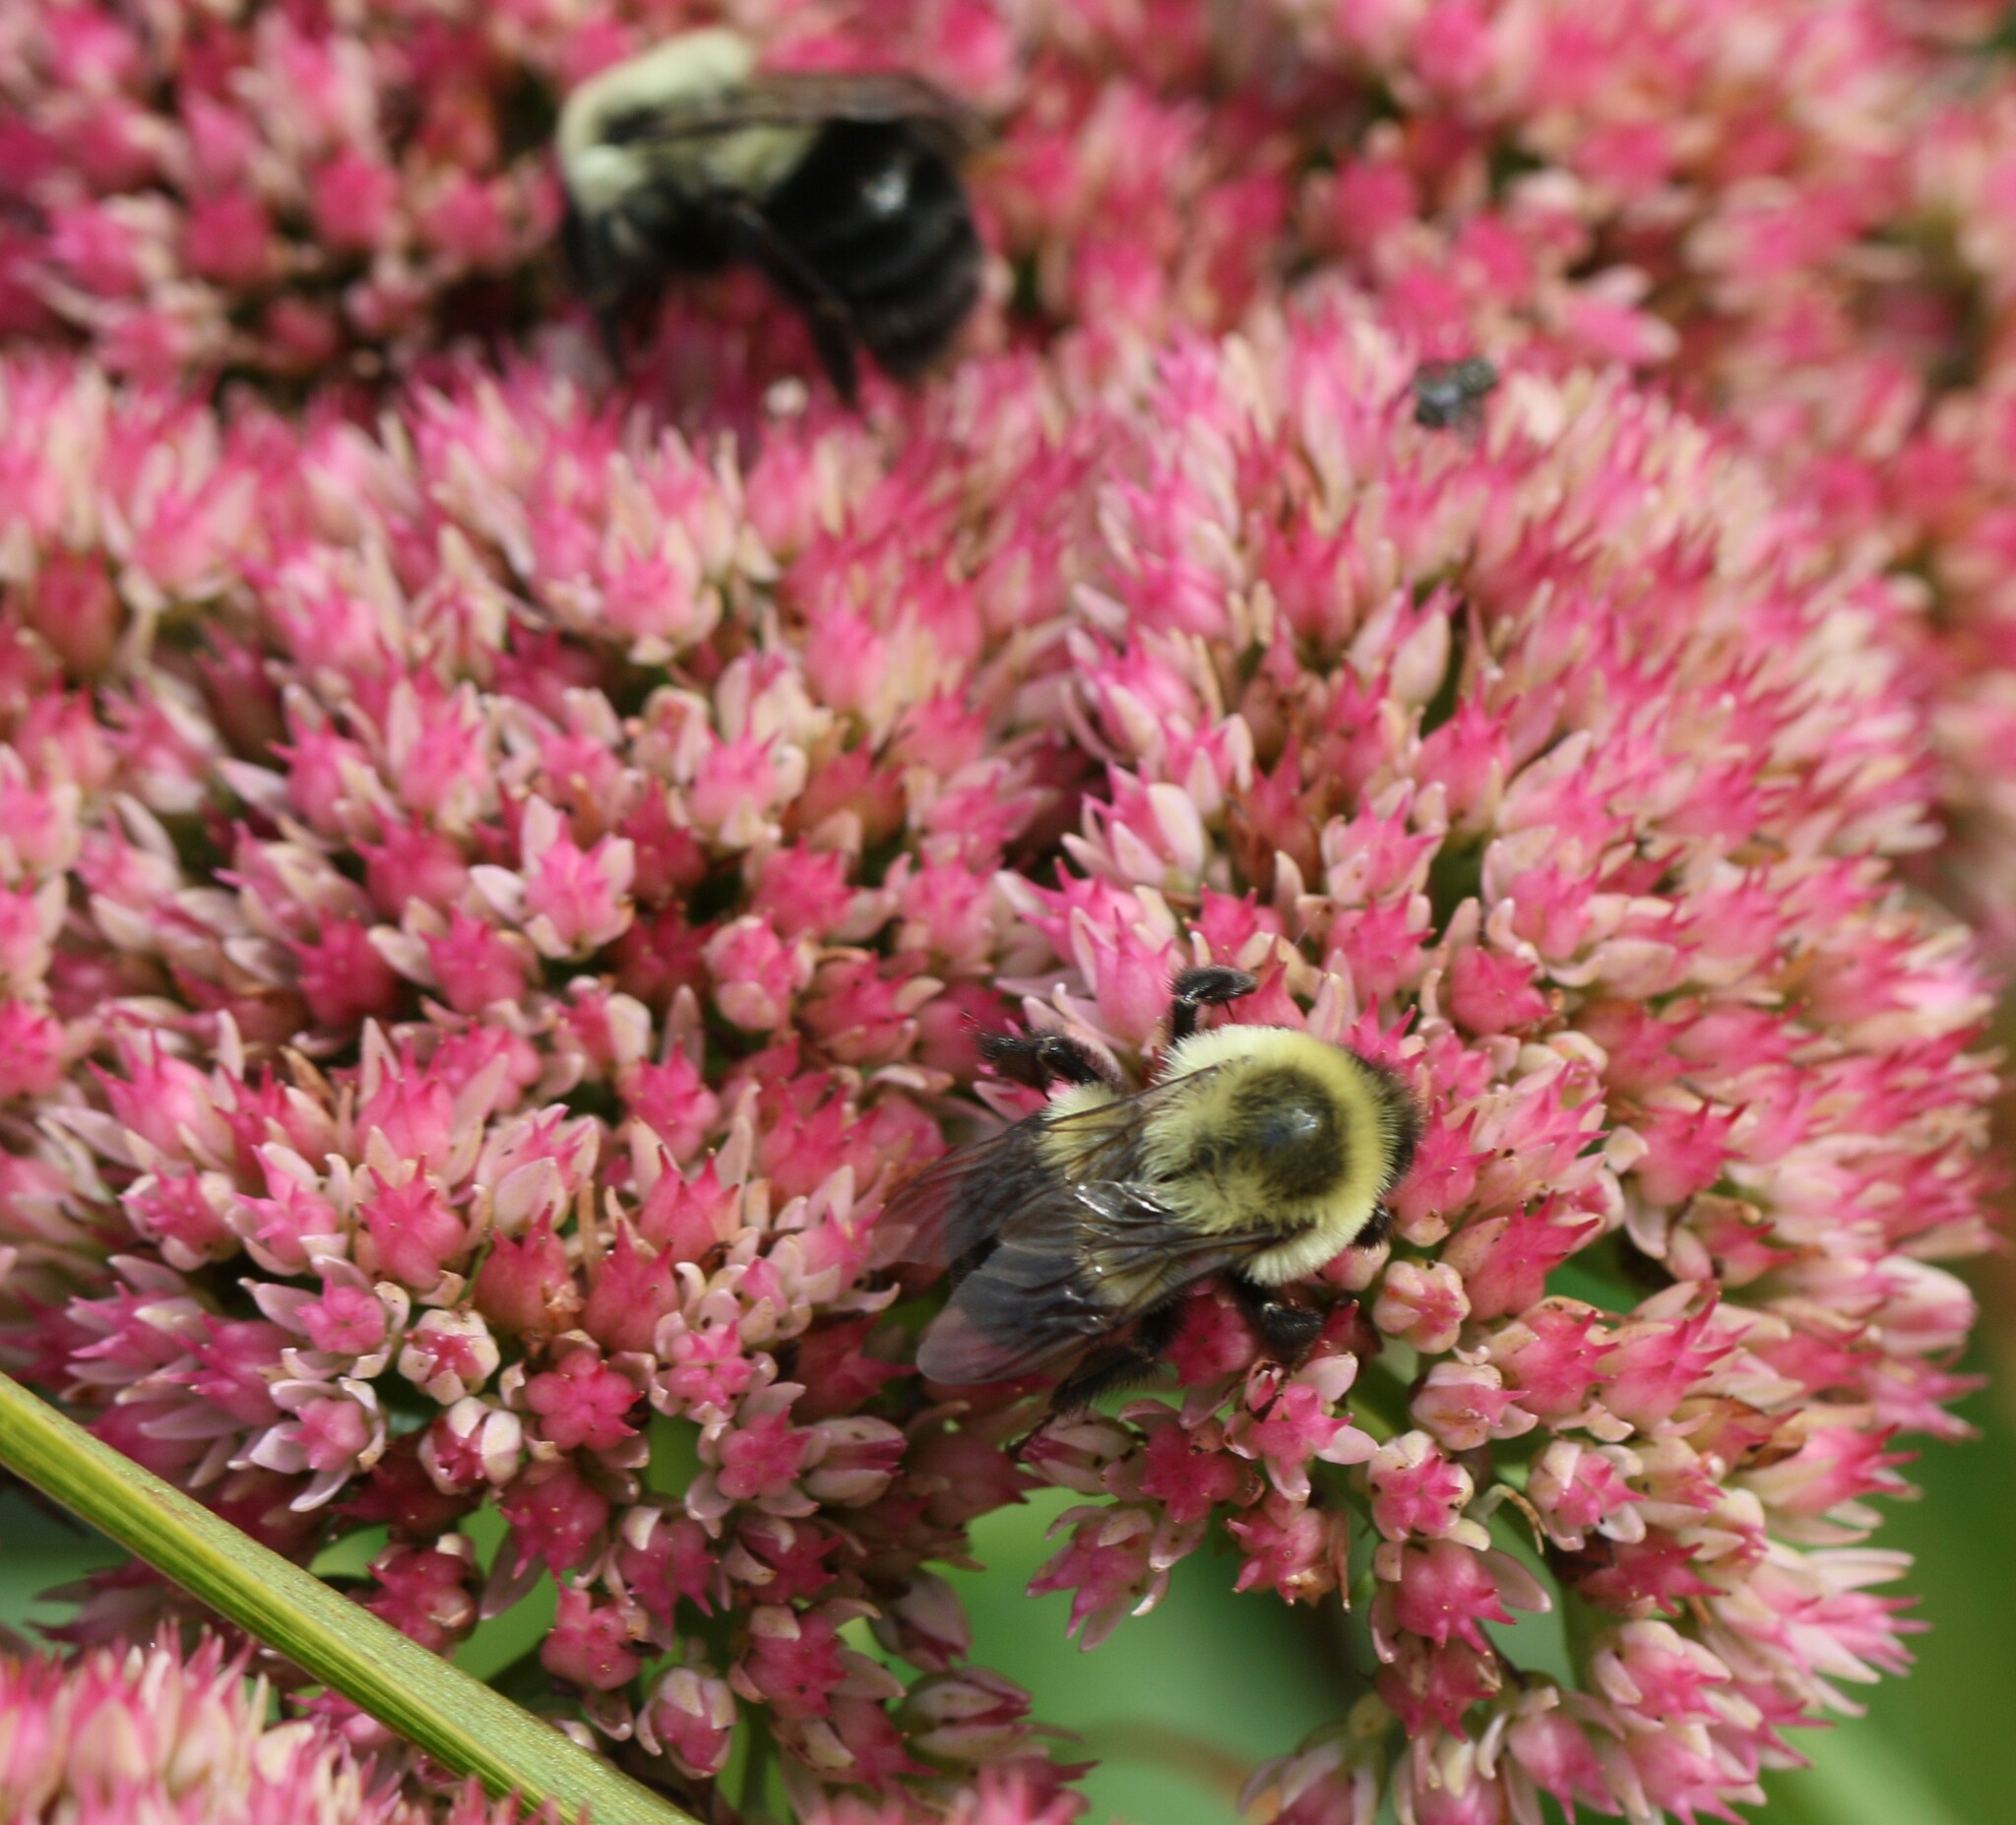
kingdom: Animalia
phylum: Arthropoda
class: Insecta
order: Hymenoptera
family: Apidae
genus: Bombus
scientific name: Bombus impatiens
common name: Common eastern bumble bee
